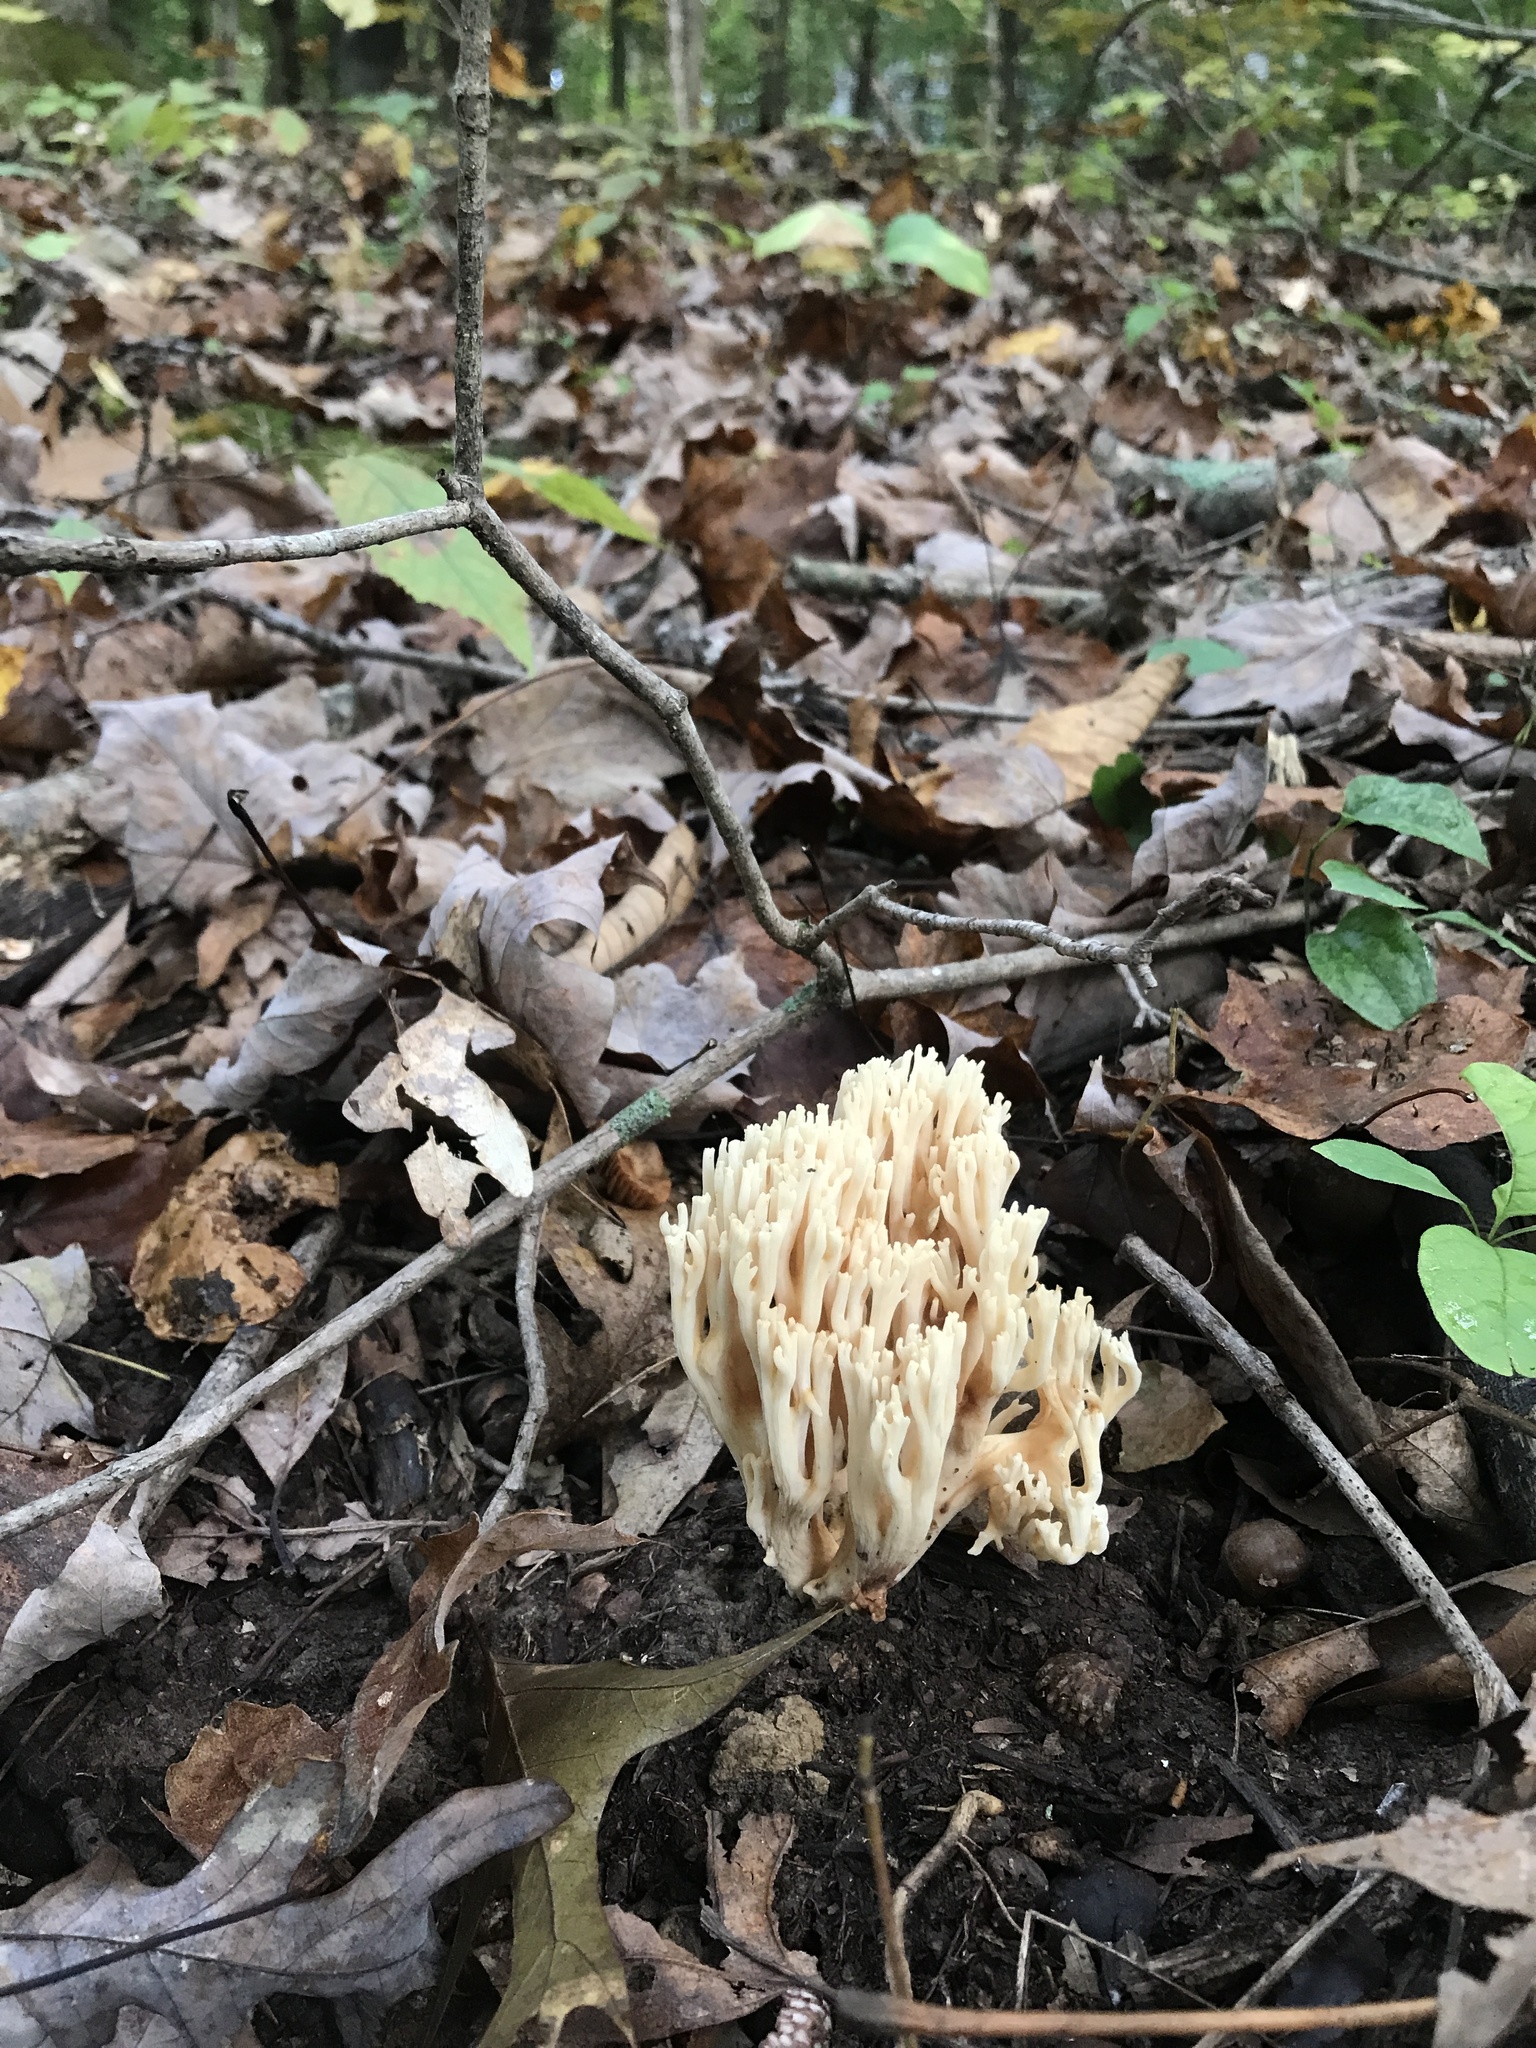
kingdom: Fungi
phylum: Basidiomycota
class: Agaricomycetes
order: Gomphales
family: Gomphaceae
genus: Ramaria
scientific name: Ramaria stricta
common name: Upright coral
